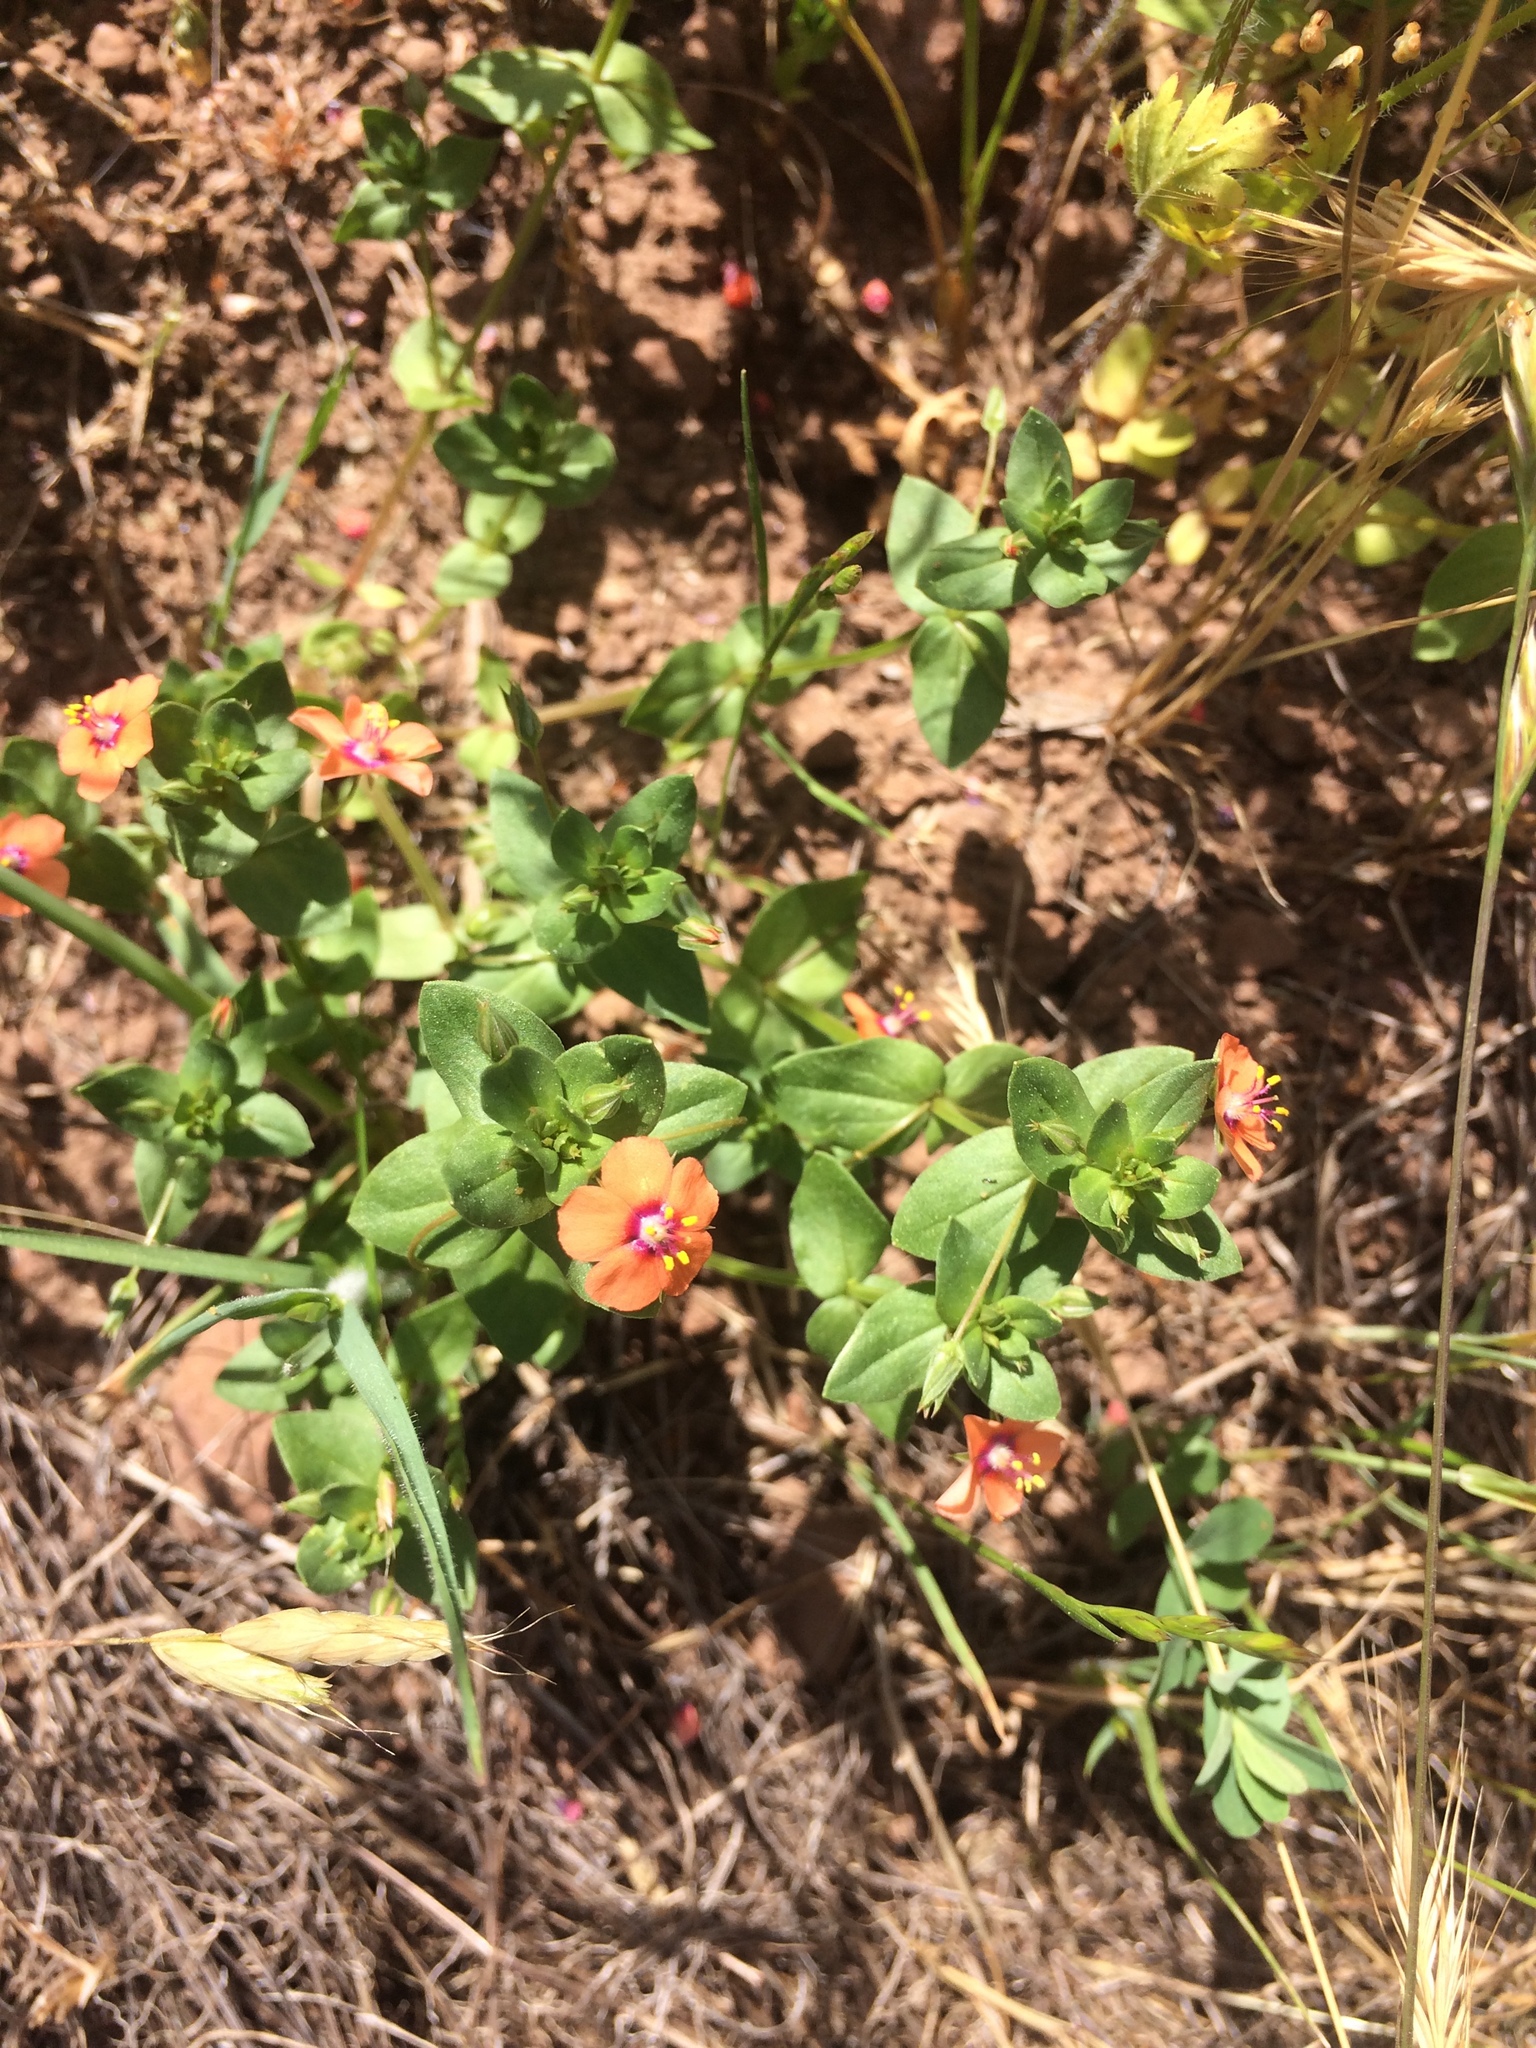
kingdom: Plantae
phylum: Tracheophyta
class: Magnoliopsida
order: Ericales
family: Primulaceae
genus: Lysimachia
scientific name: Lysimachia arvensis
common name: Scarlet pimpernel
